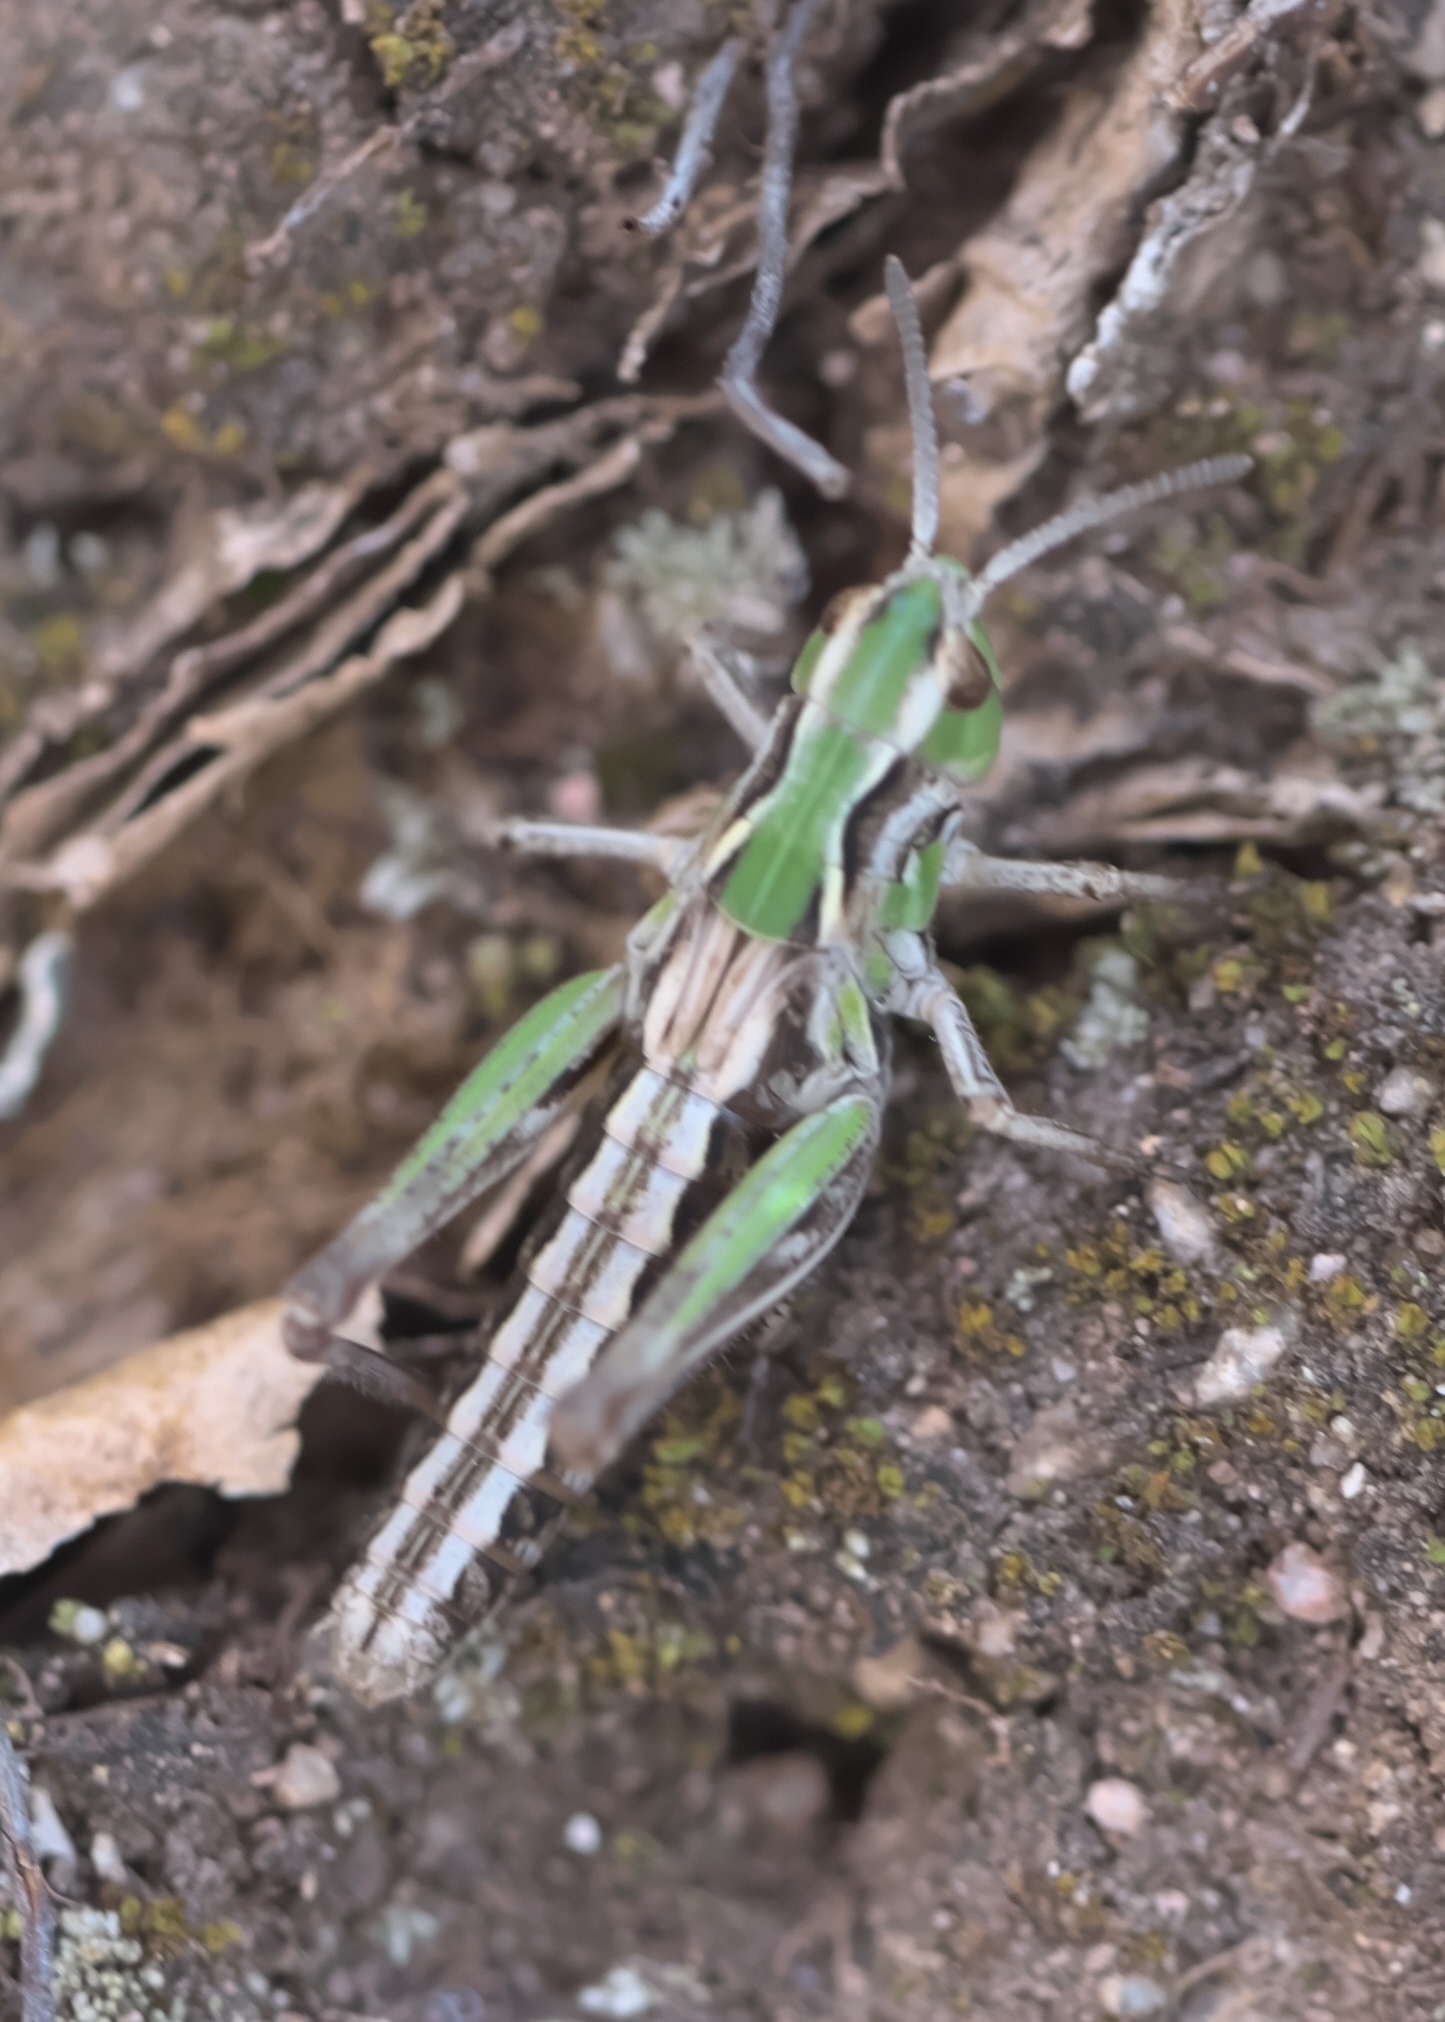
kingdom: Animalia
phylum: Arthropoda
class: Insecta
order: Orthoptera
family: Acrididae
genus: Aeropedellus
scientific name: Aeropedellus clavatus
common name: Clubhorned grasshopper
